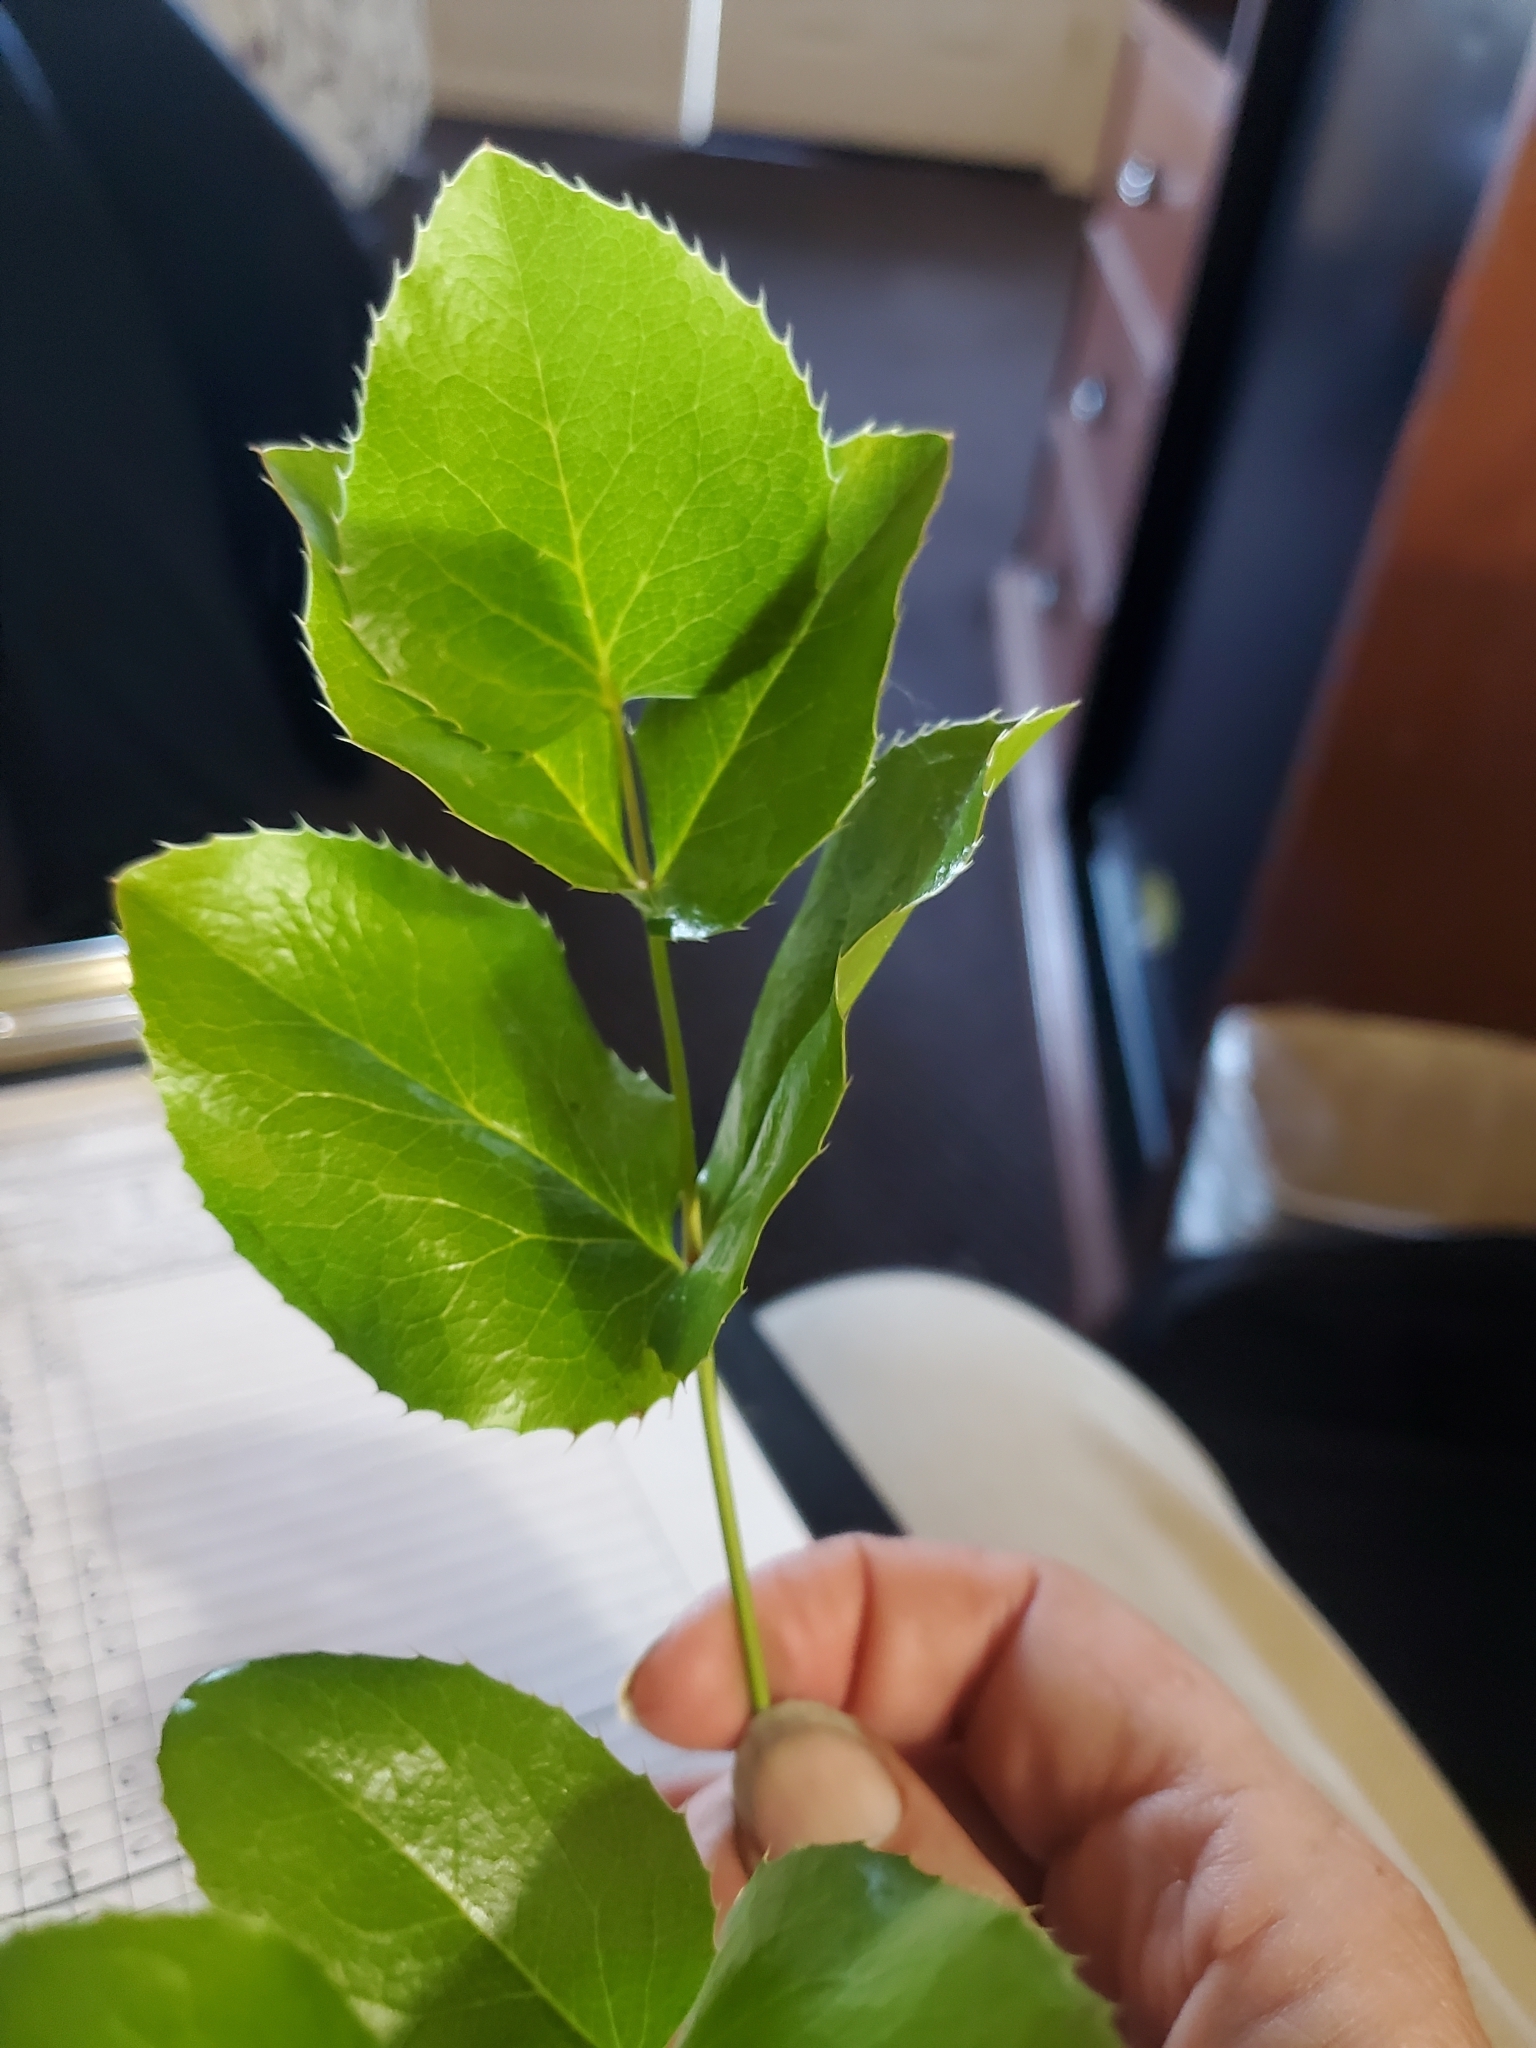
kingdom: Plantae
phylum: Tracheophyta
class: Magnoliopsida
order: Ranunculales
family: Berberidaceae
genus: Mahonia
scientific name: Mahonia repens
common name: Creeping oregon-grape
